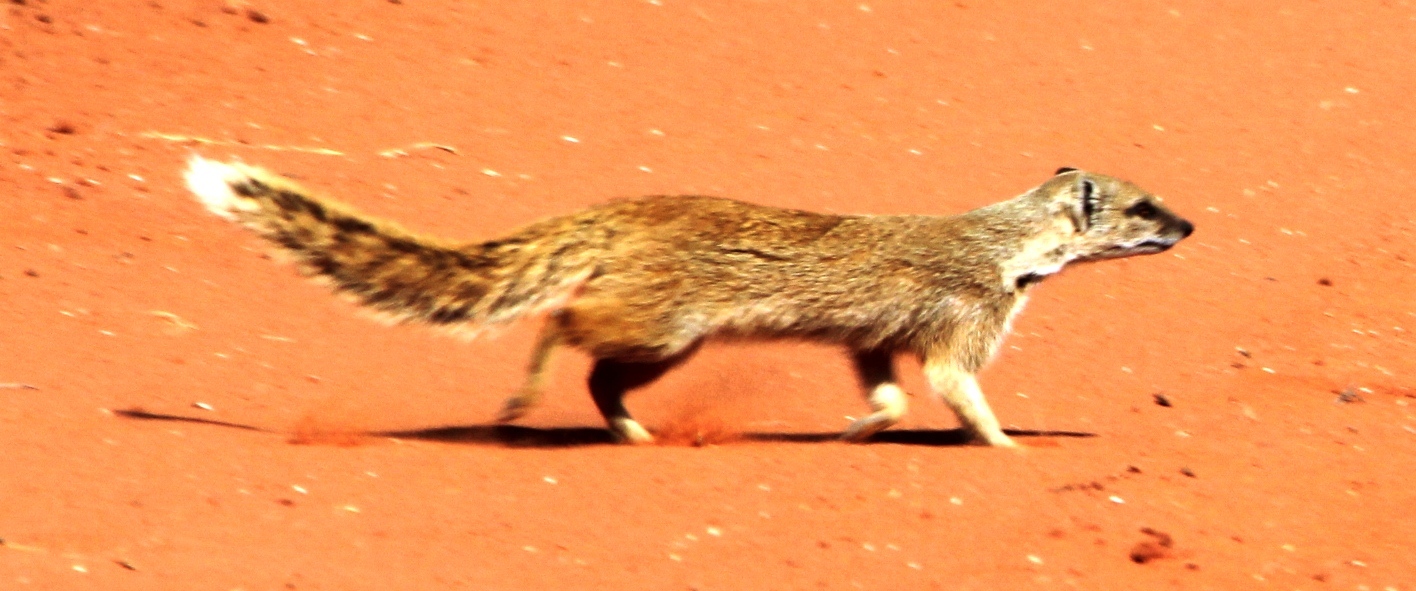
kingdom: Animalia
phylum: Chordata
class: Mammalia
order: Carnivora
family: Herpestidae
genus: Cynictis
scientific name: Cynictis penicillata
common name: Yellow mongoose
